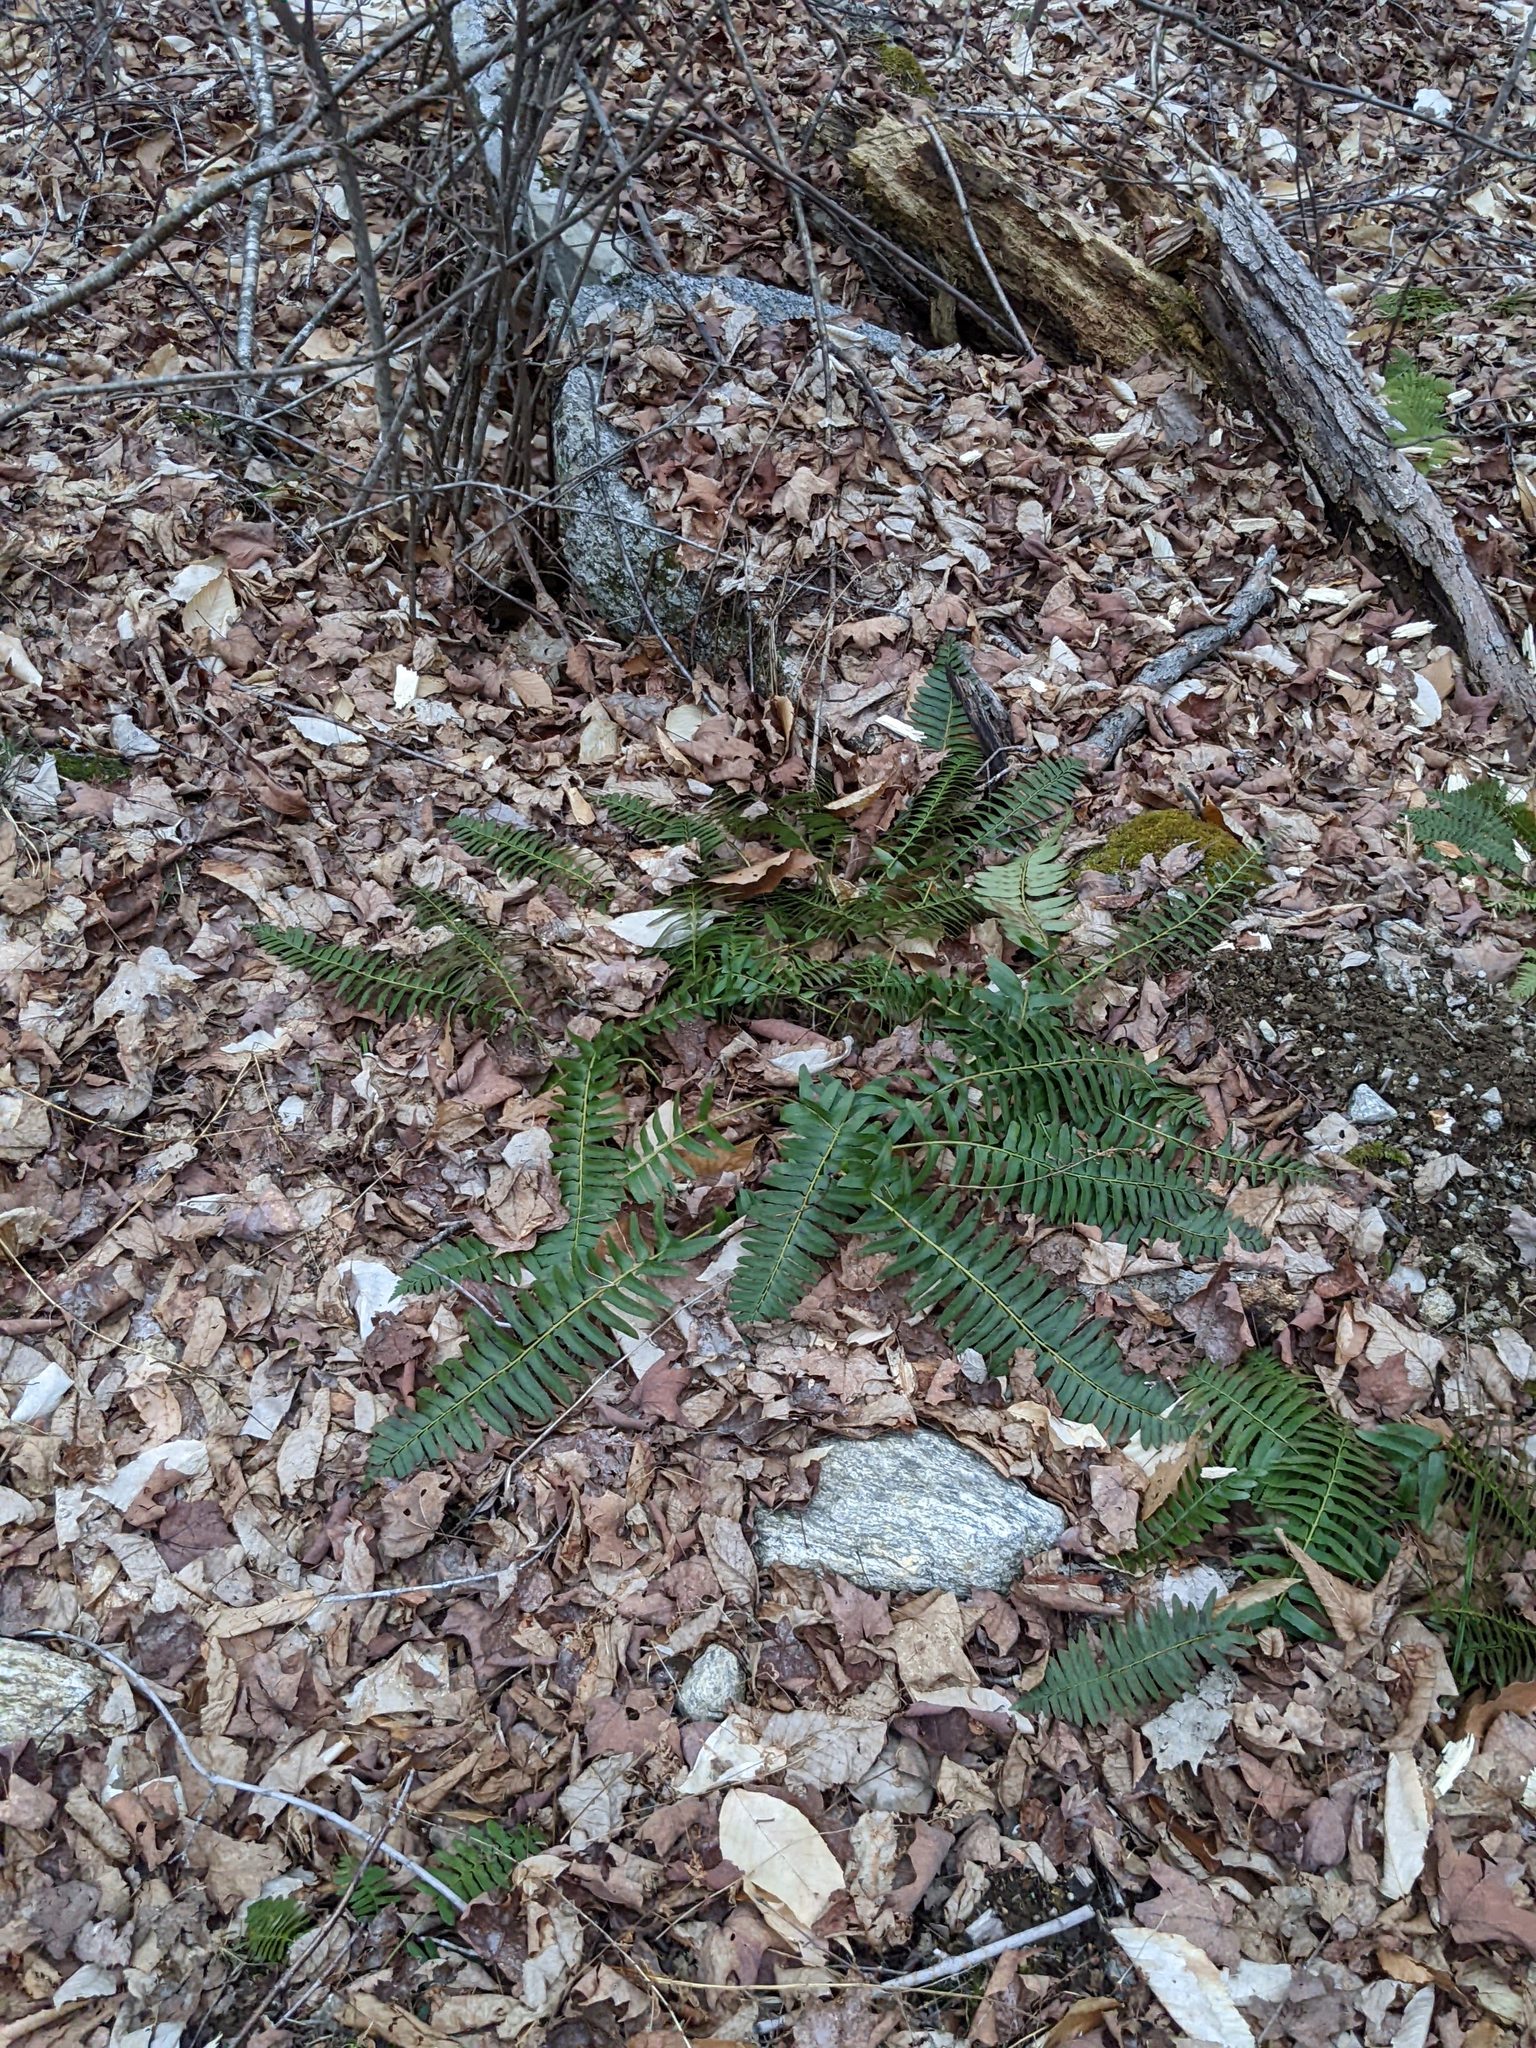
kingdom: Plantae
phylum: Tracheophyta
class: Polypodiopsida
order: Polypodiales
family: Dryopteridaceae
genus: Polystichum
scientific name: Polystichum acrostichoides
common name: Christmas fern
